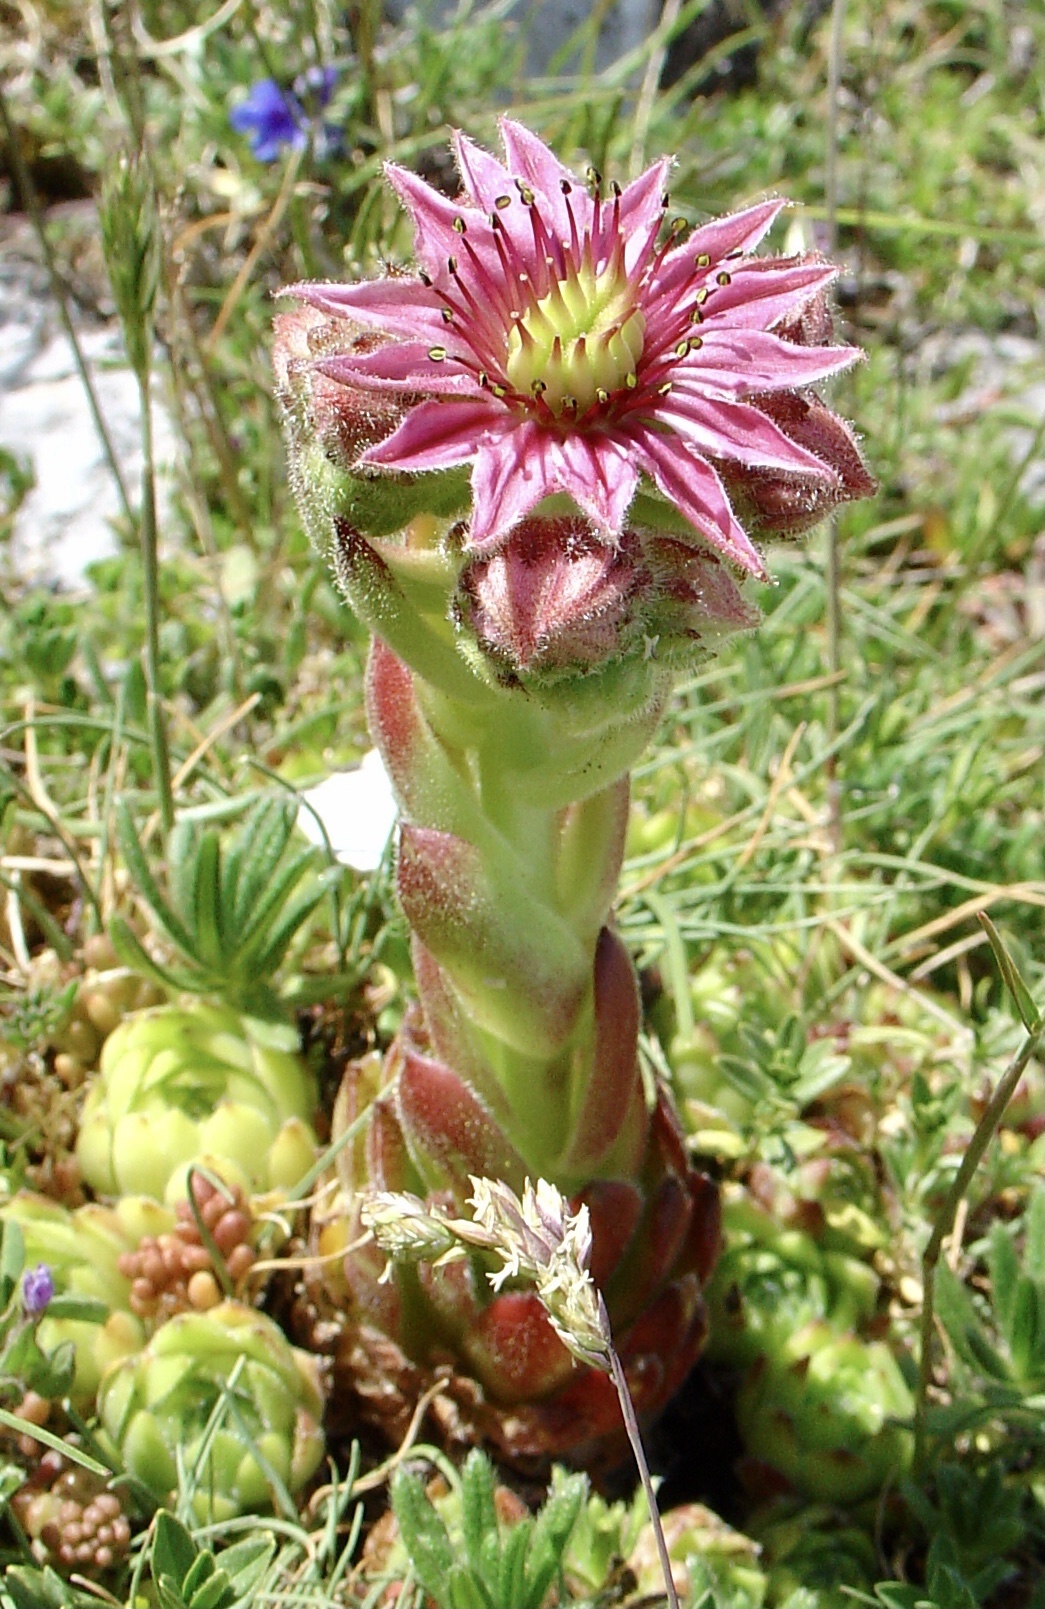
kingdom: Plantae
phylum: Tracheophyta
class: Magnoliopsida
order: Saxifragales
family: Crassulaceae
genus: Sempervivum
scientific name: Sempervivum vicentei
